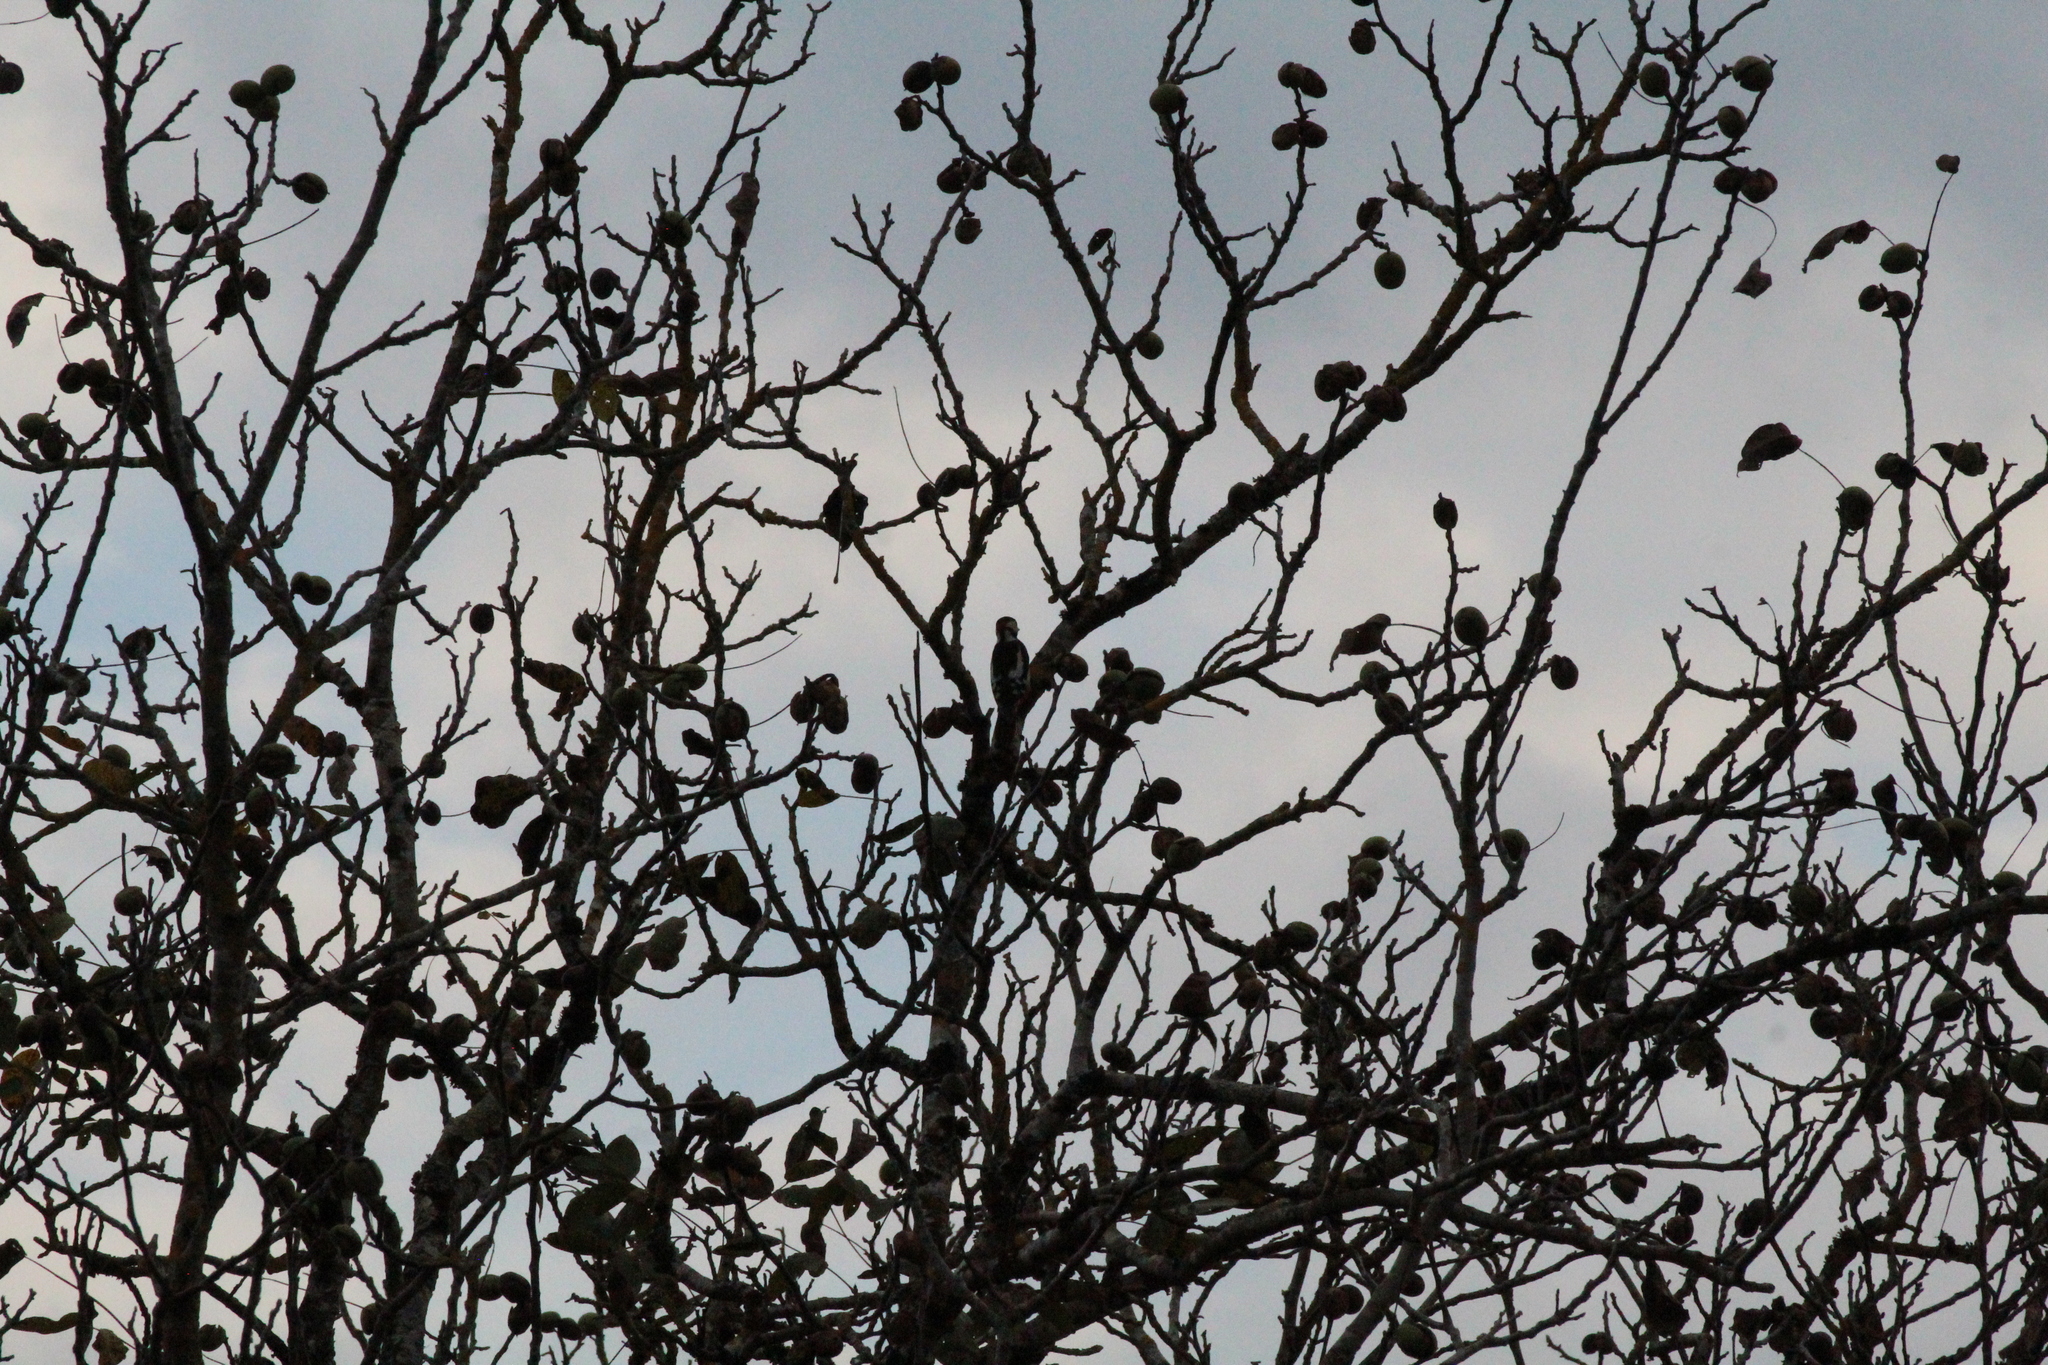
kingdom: Animalia
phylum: Chordata
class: Aves
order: Piciformes
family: Picidae
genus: Dendrocopos
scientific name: Dendrocopos major
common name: Great spotted woodpecker
